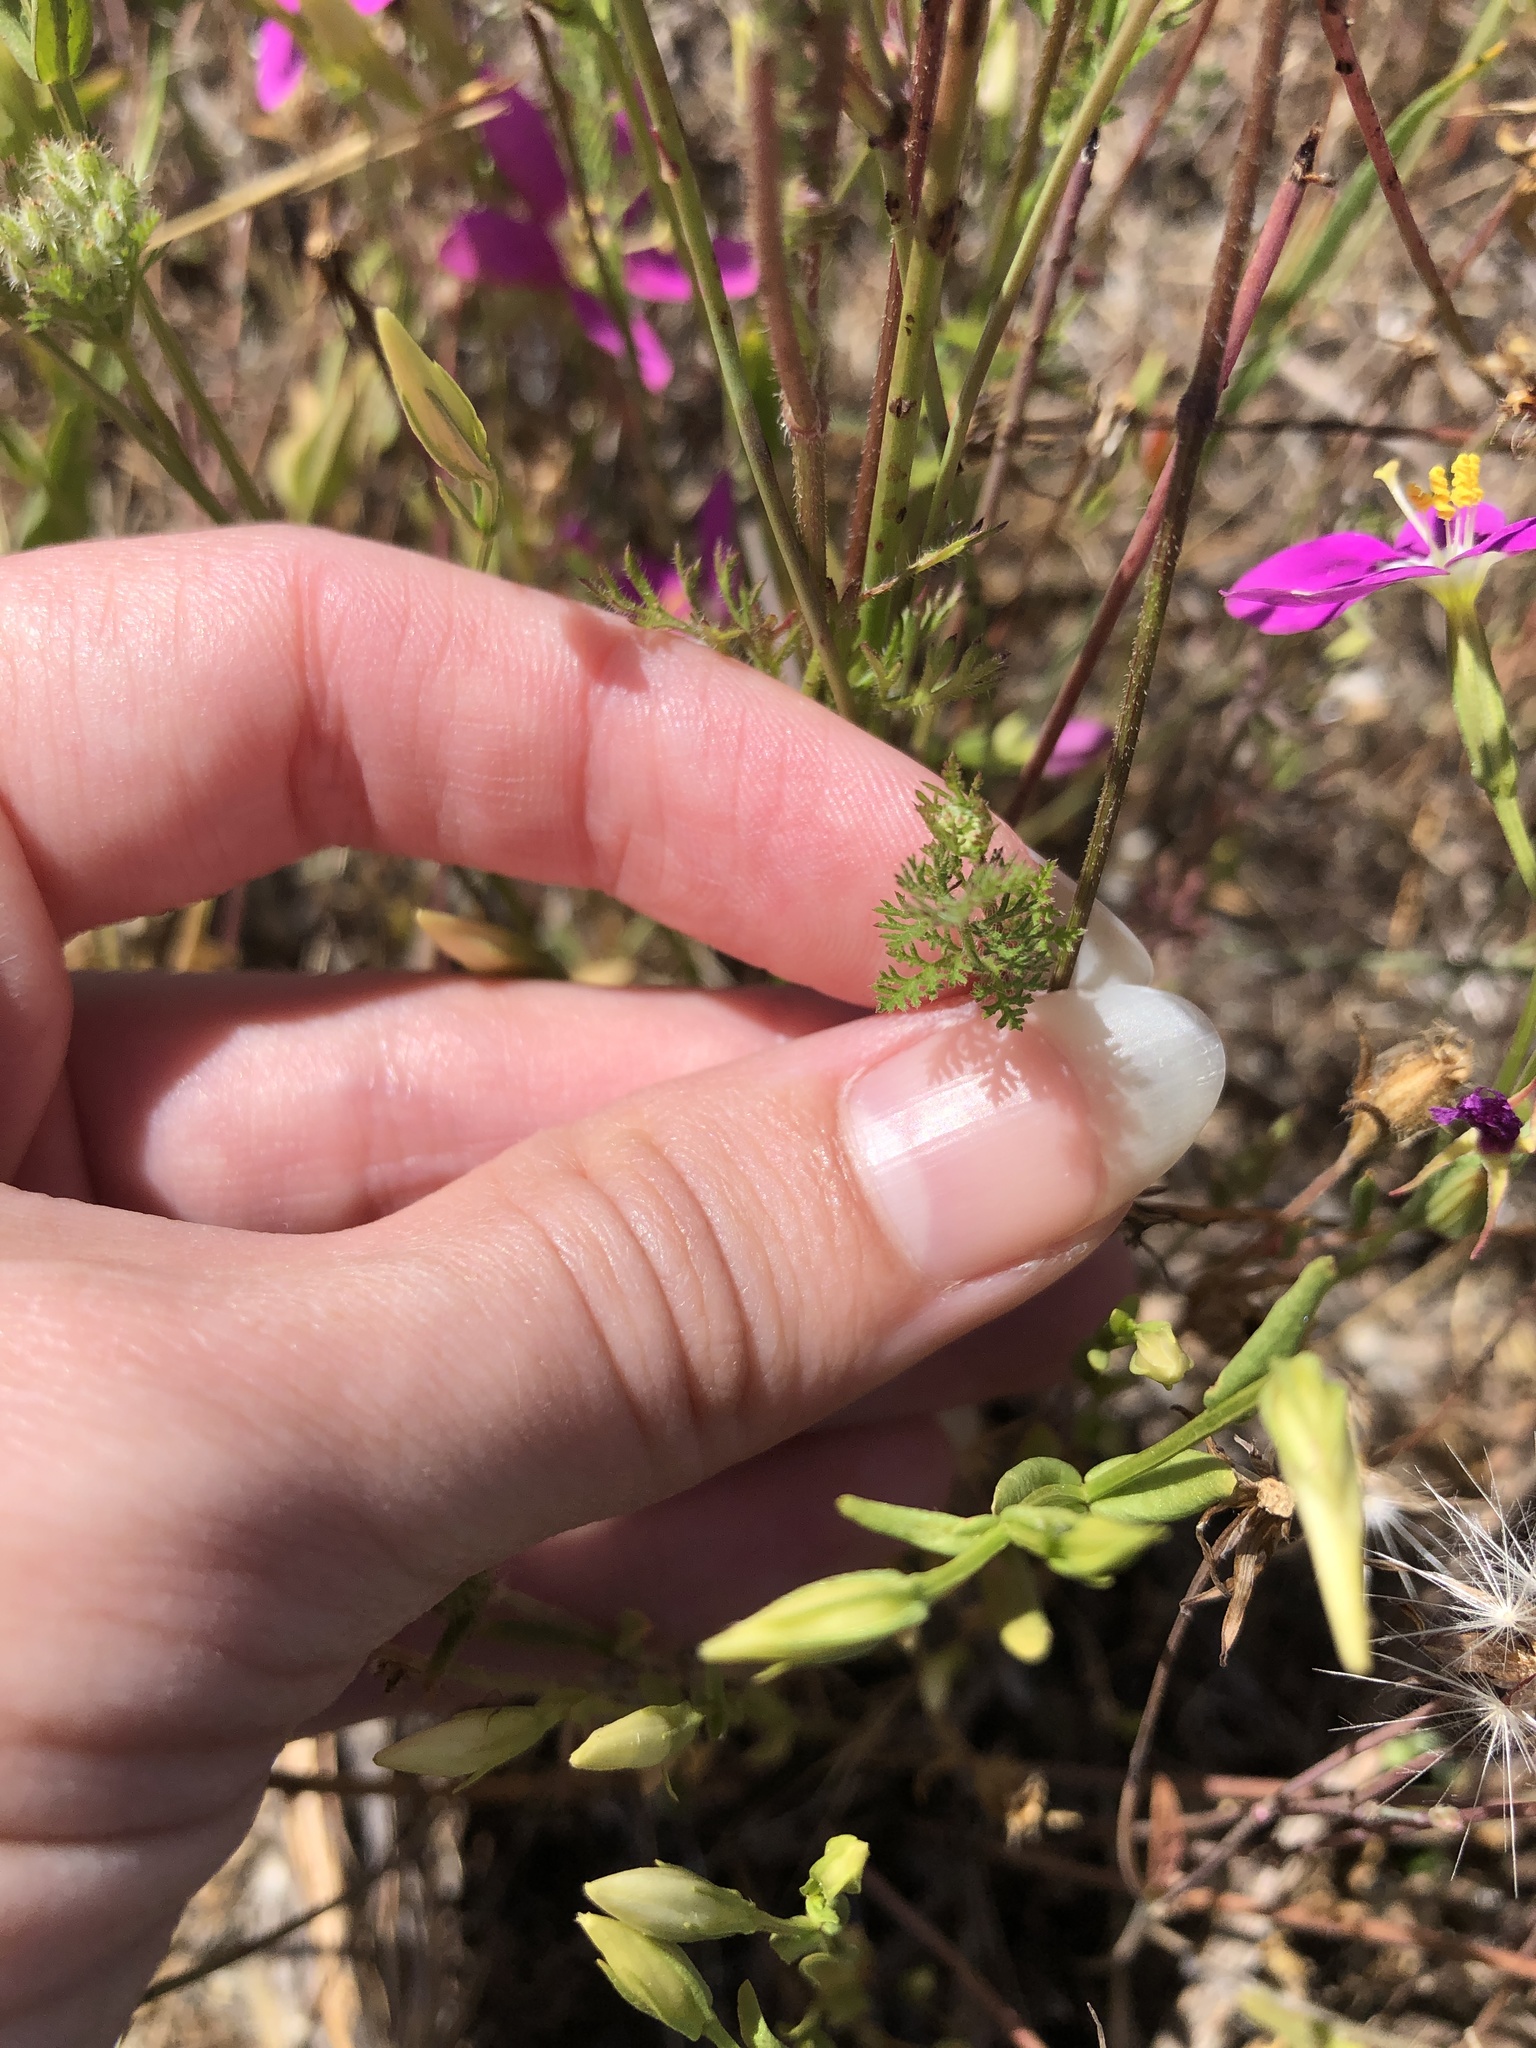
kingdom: Plantae
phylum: Tracheophyta
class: Magnoliopsida
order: Apiales
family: Apiaceae
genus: Daucus
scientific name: Daucus pusillus
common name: Southwest wild carrot
